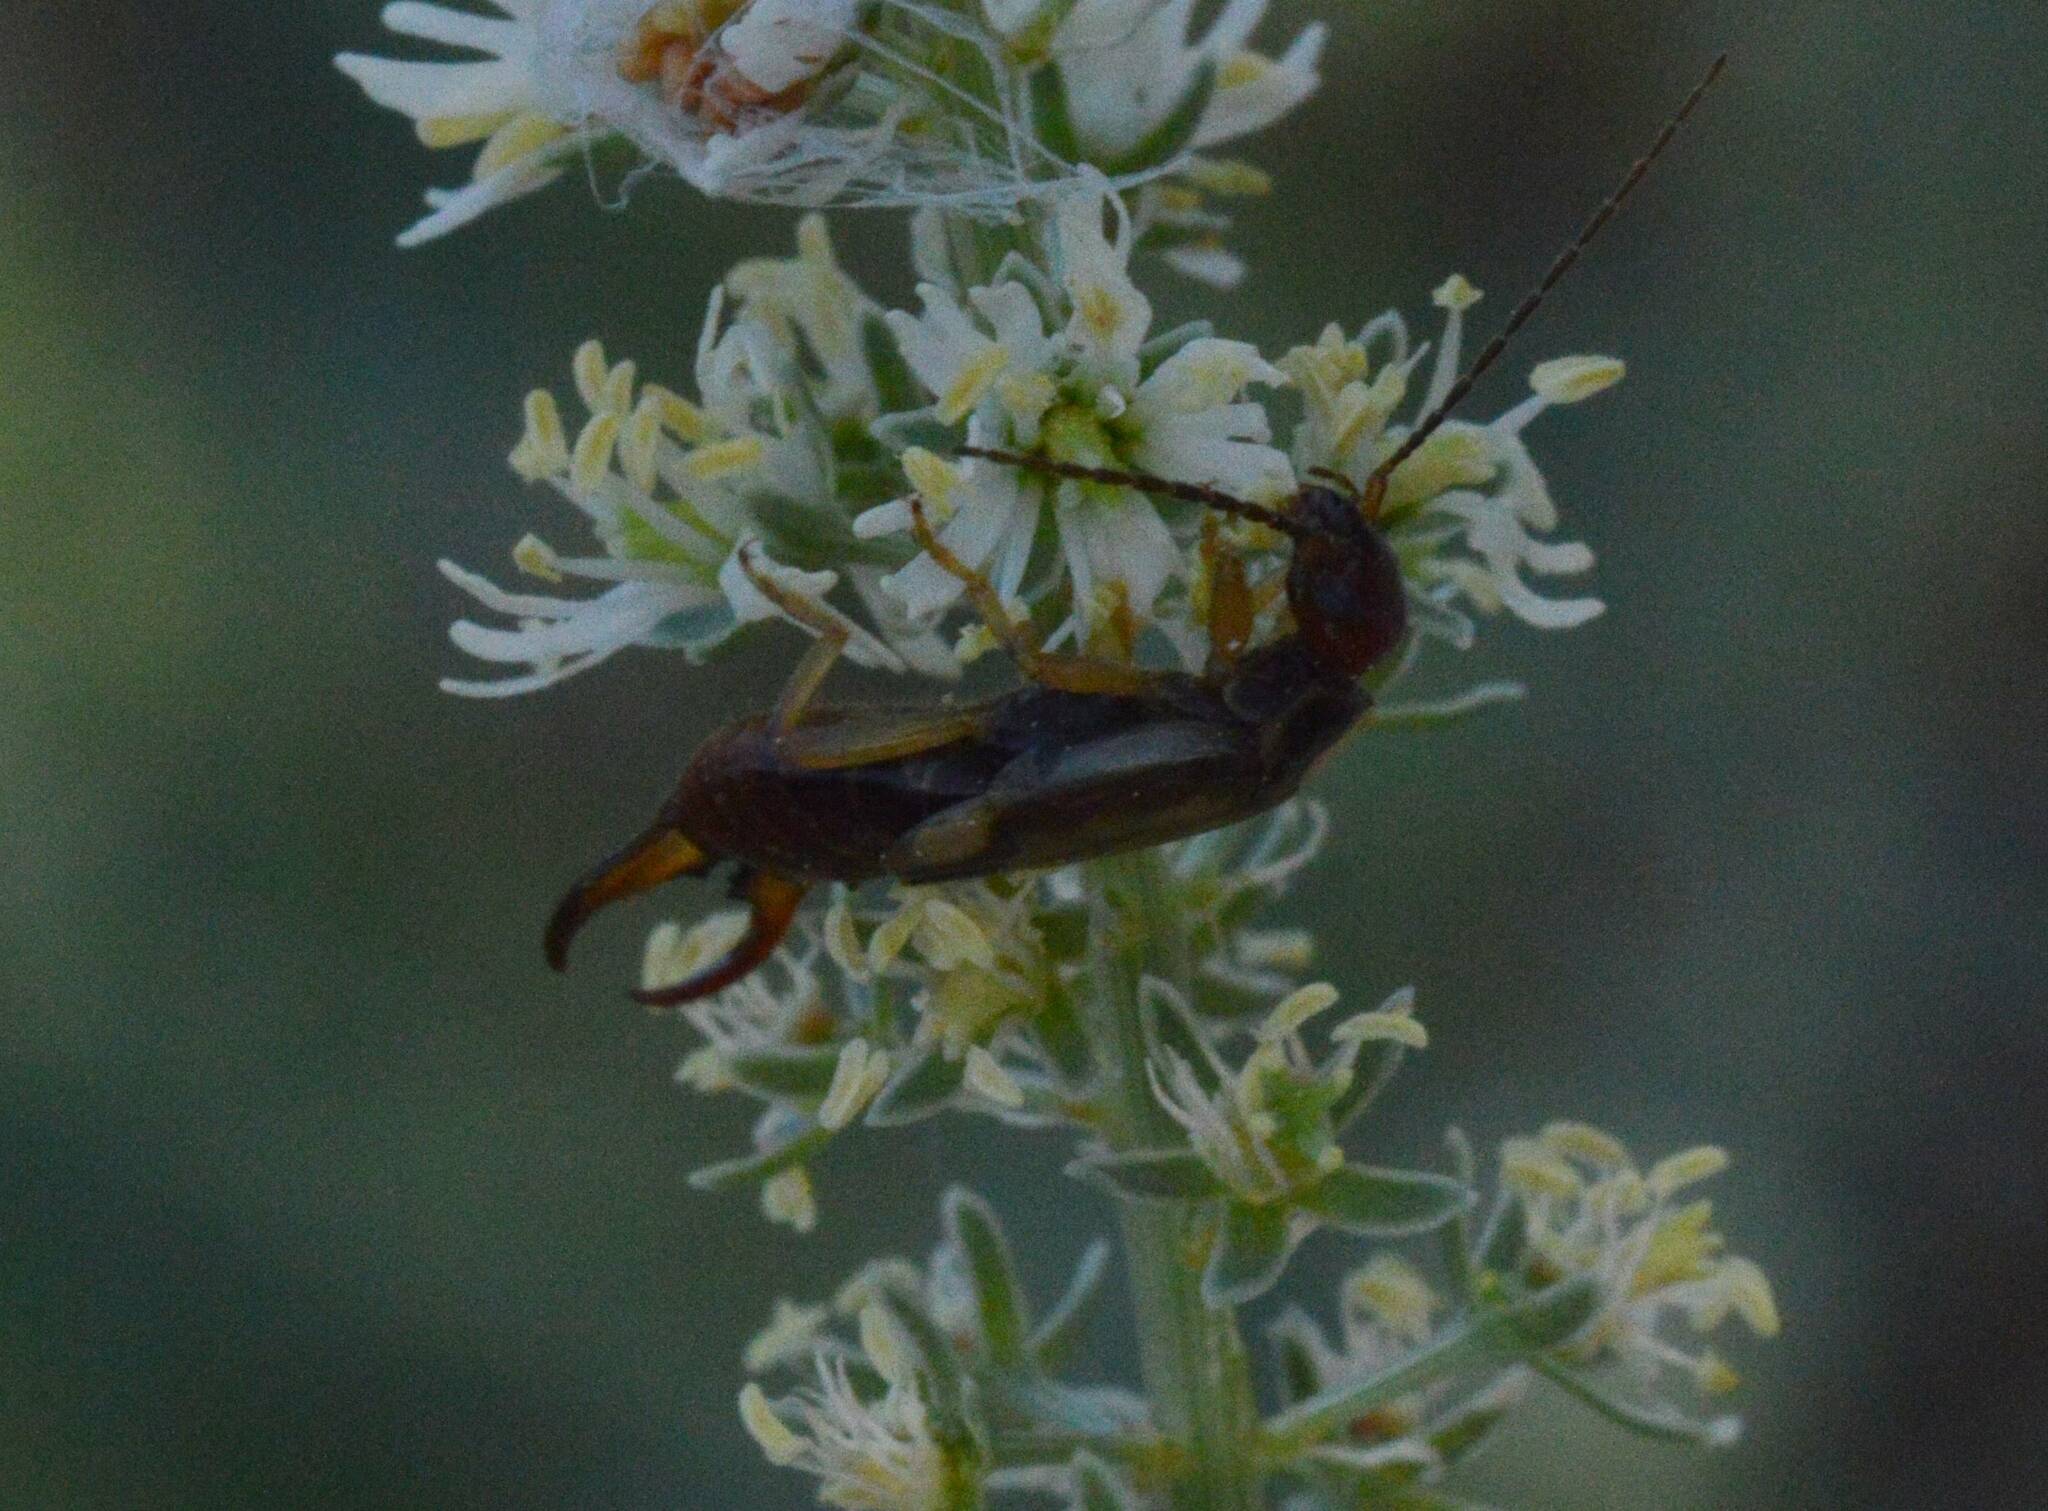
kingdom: Animalia
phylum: Arthropoda
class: Insecta
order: Dermaptera
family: Forficulidae
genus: Forficula
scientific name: Forficula
